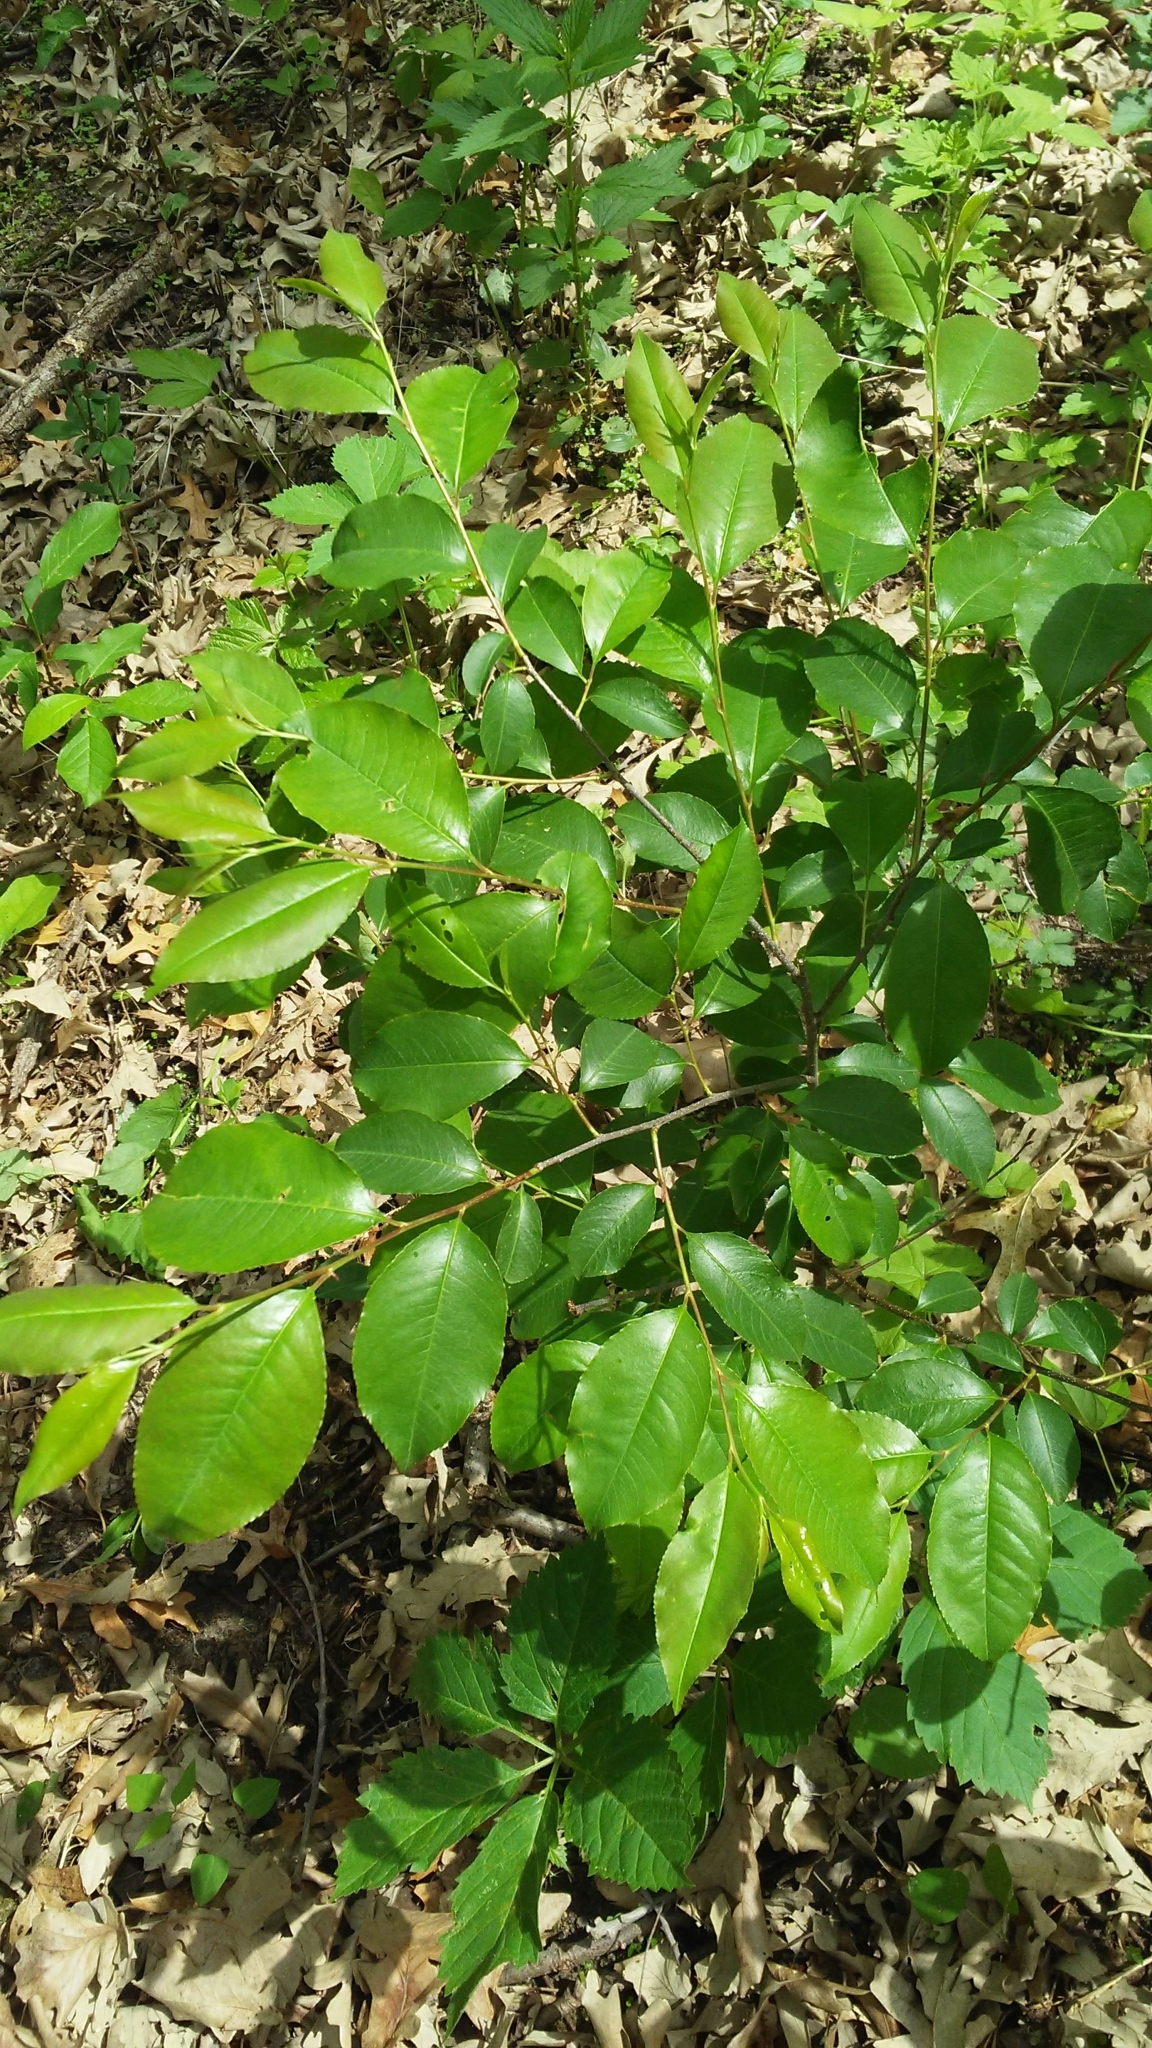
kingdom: Plantae
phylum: Tracheophyta
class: Magnoliopsida
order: Rosales
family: Rosaceae
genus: Prunus
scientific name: Prunus serotina
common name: Black cherry
